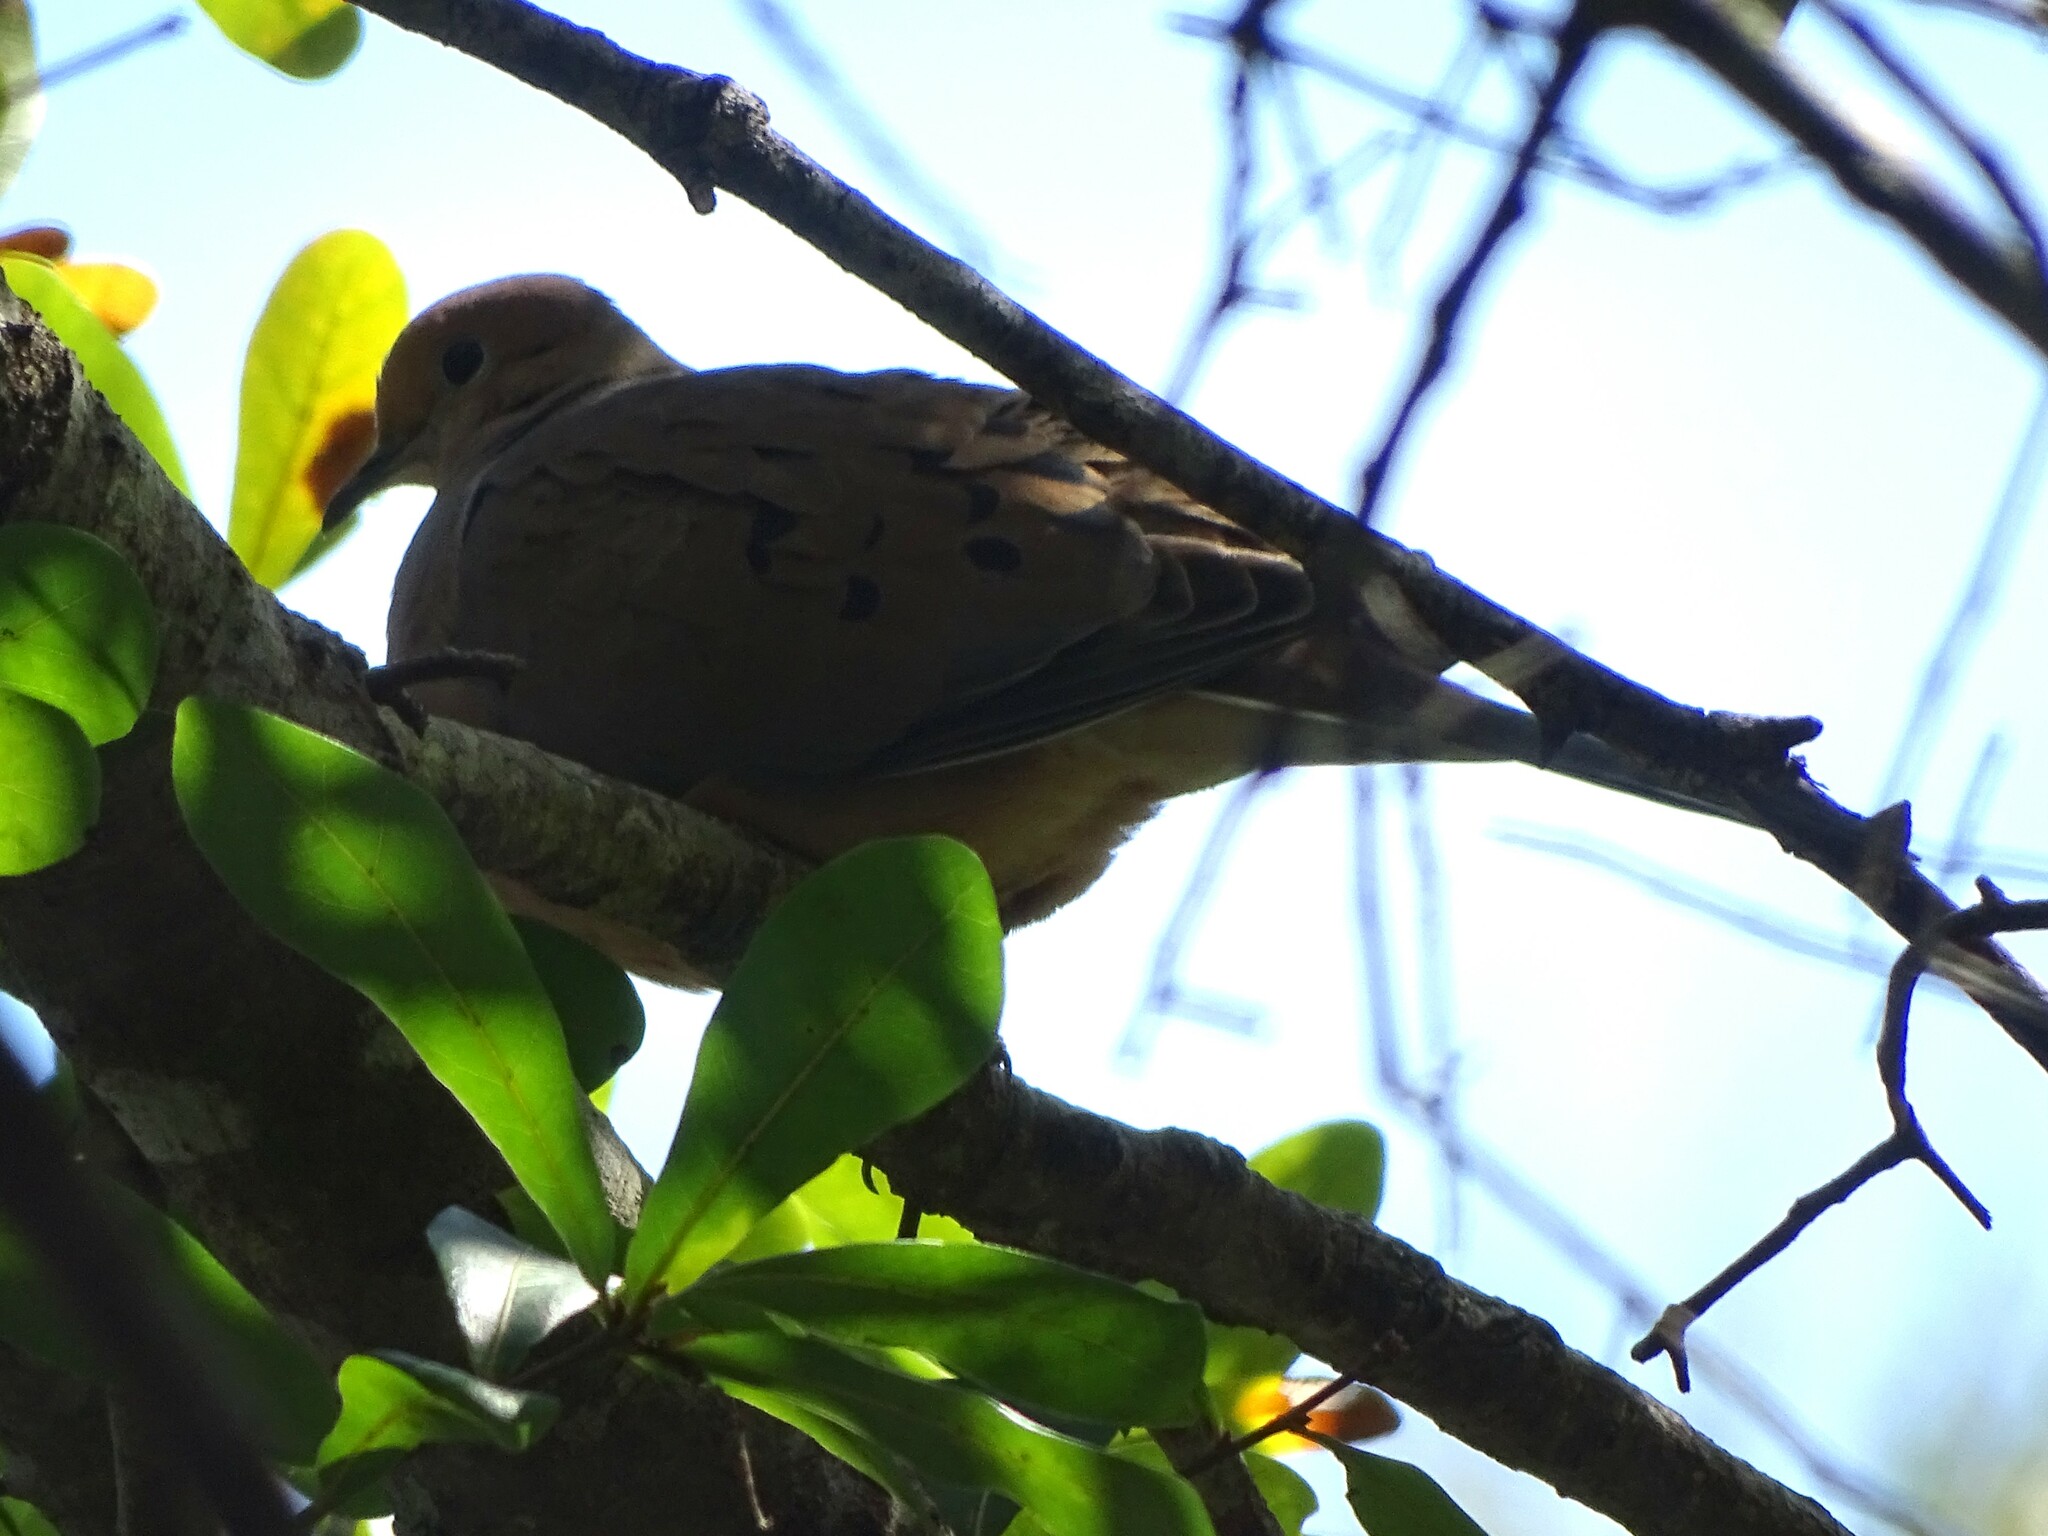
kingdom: Animalia
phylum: Chordata
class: Aves
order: Columbiformes
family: Columbidae
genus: Zenaida
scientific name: Zenaida macroura
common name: Mourning dove
